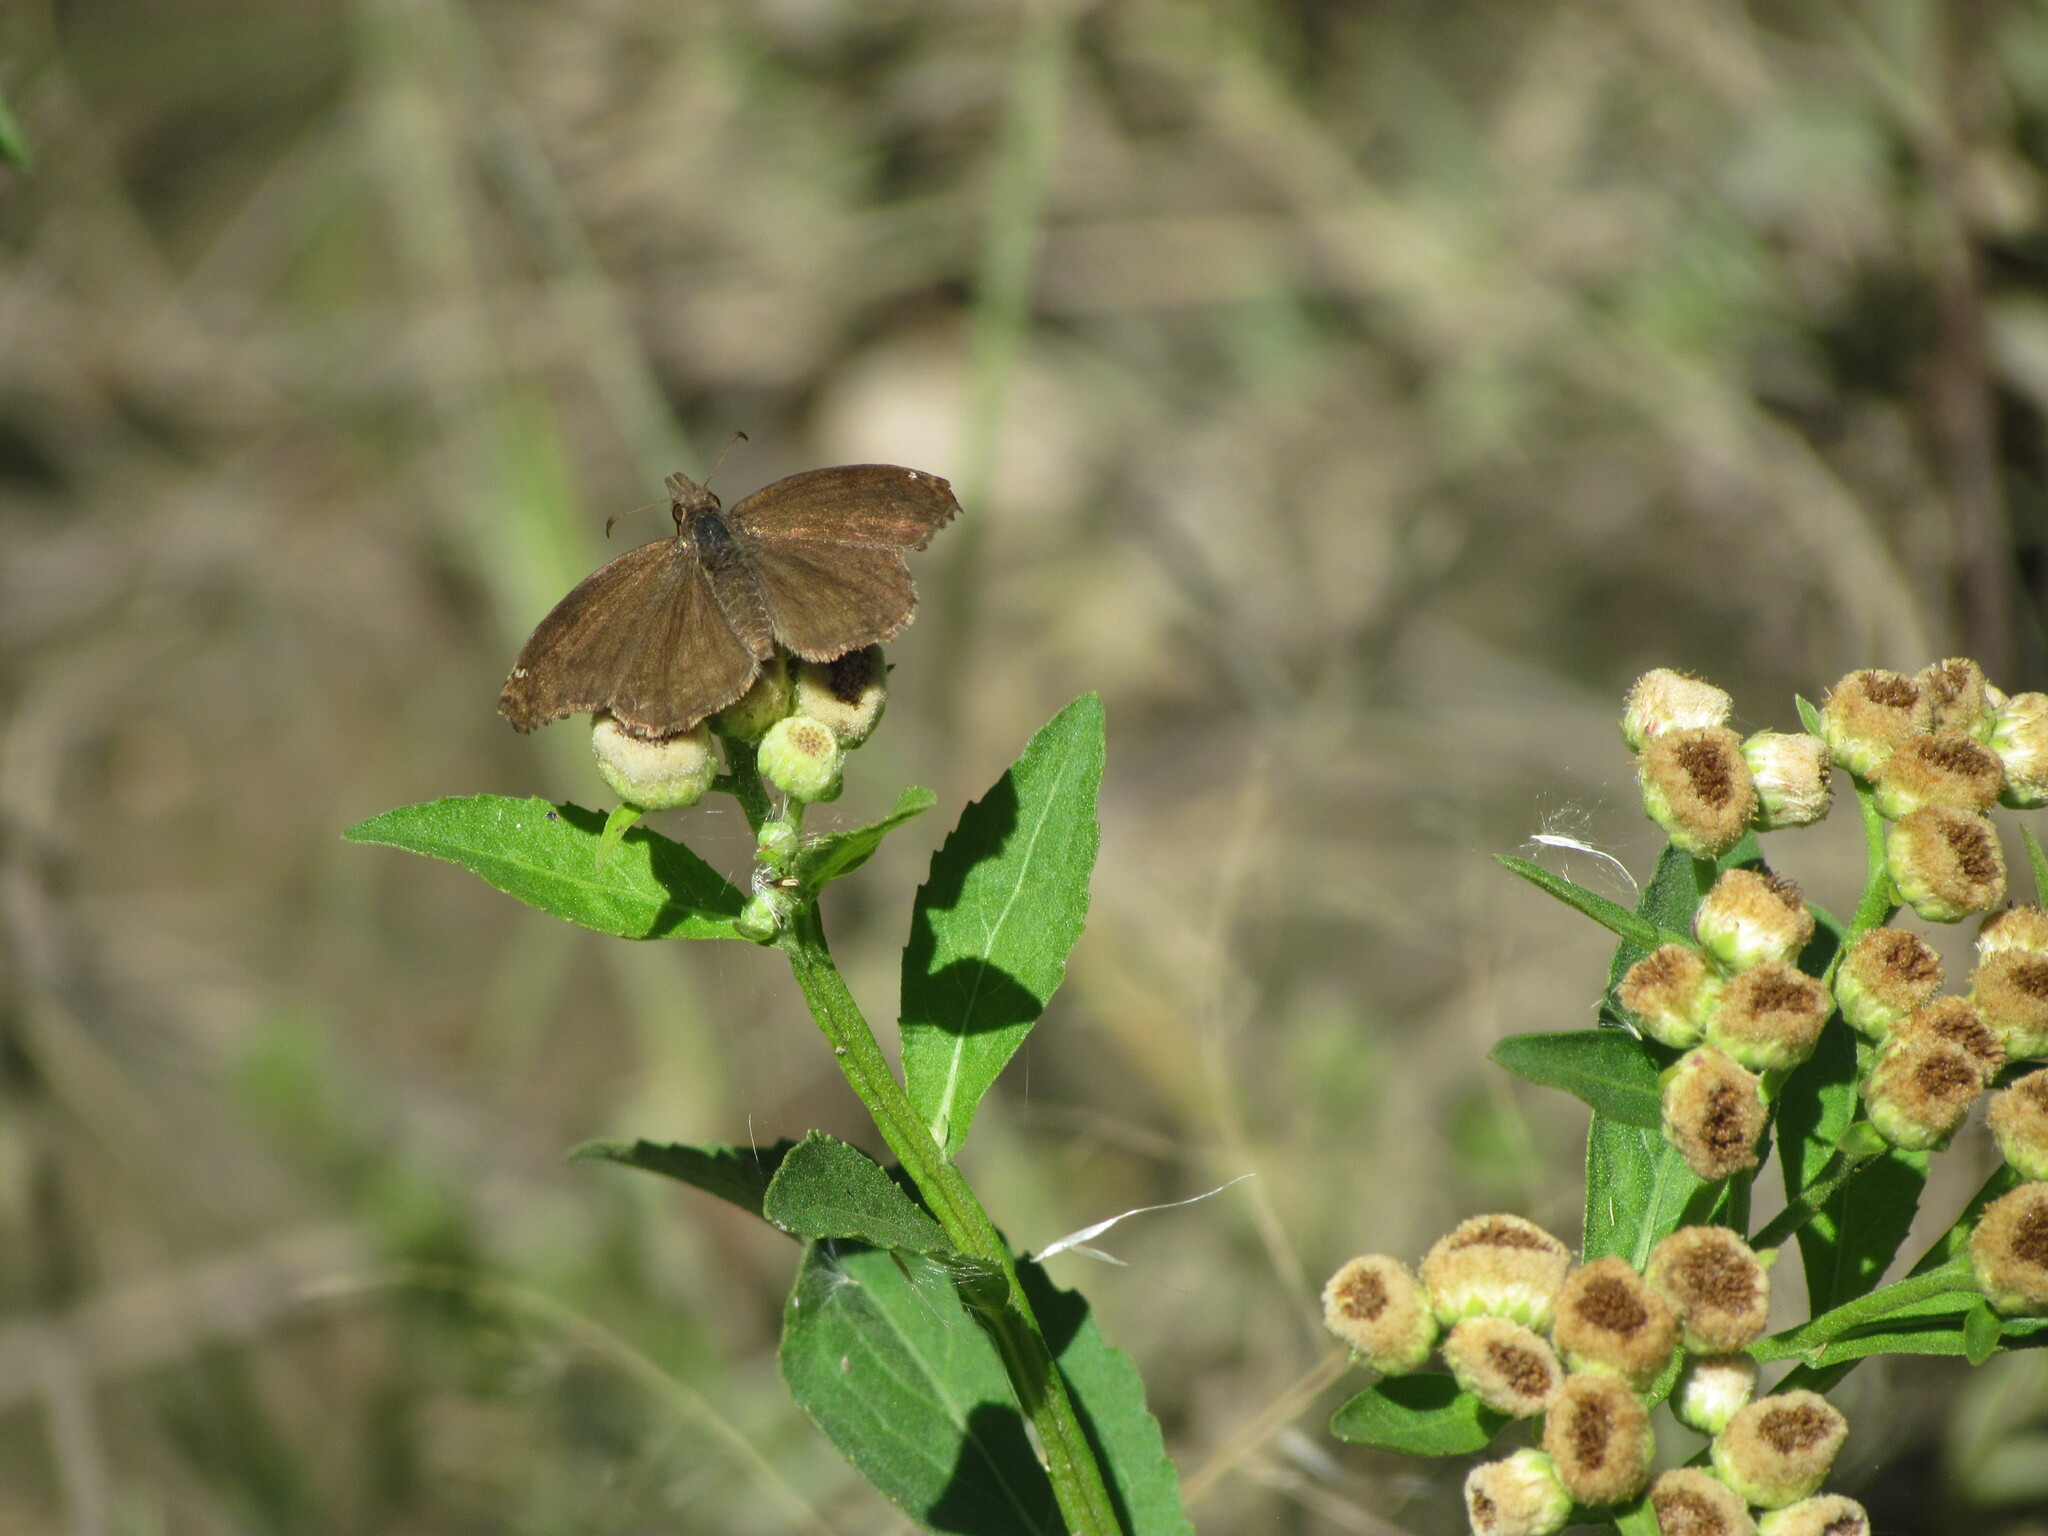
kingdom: Animalia
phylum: Arthropoda
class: Insecta
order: Lepidoptera
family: Hesperiidae
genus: Anisochoria
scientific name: Anisochoria sublimbata
